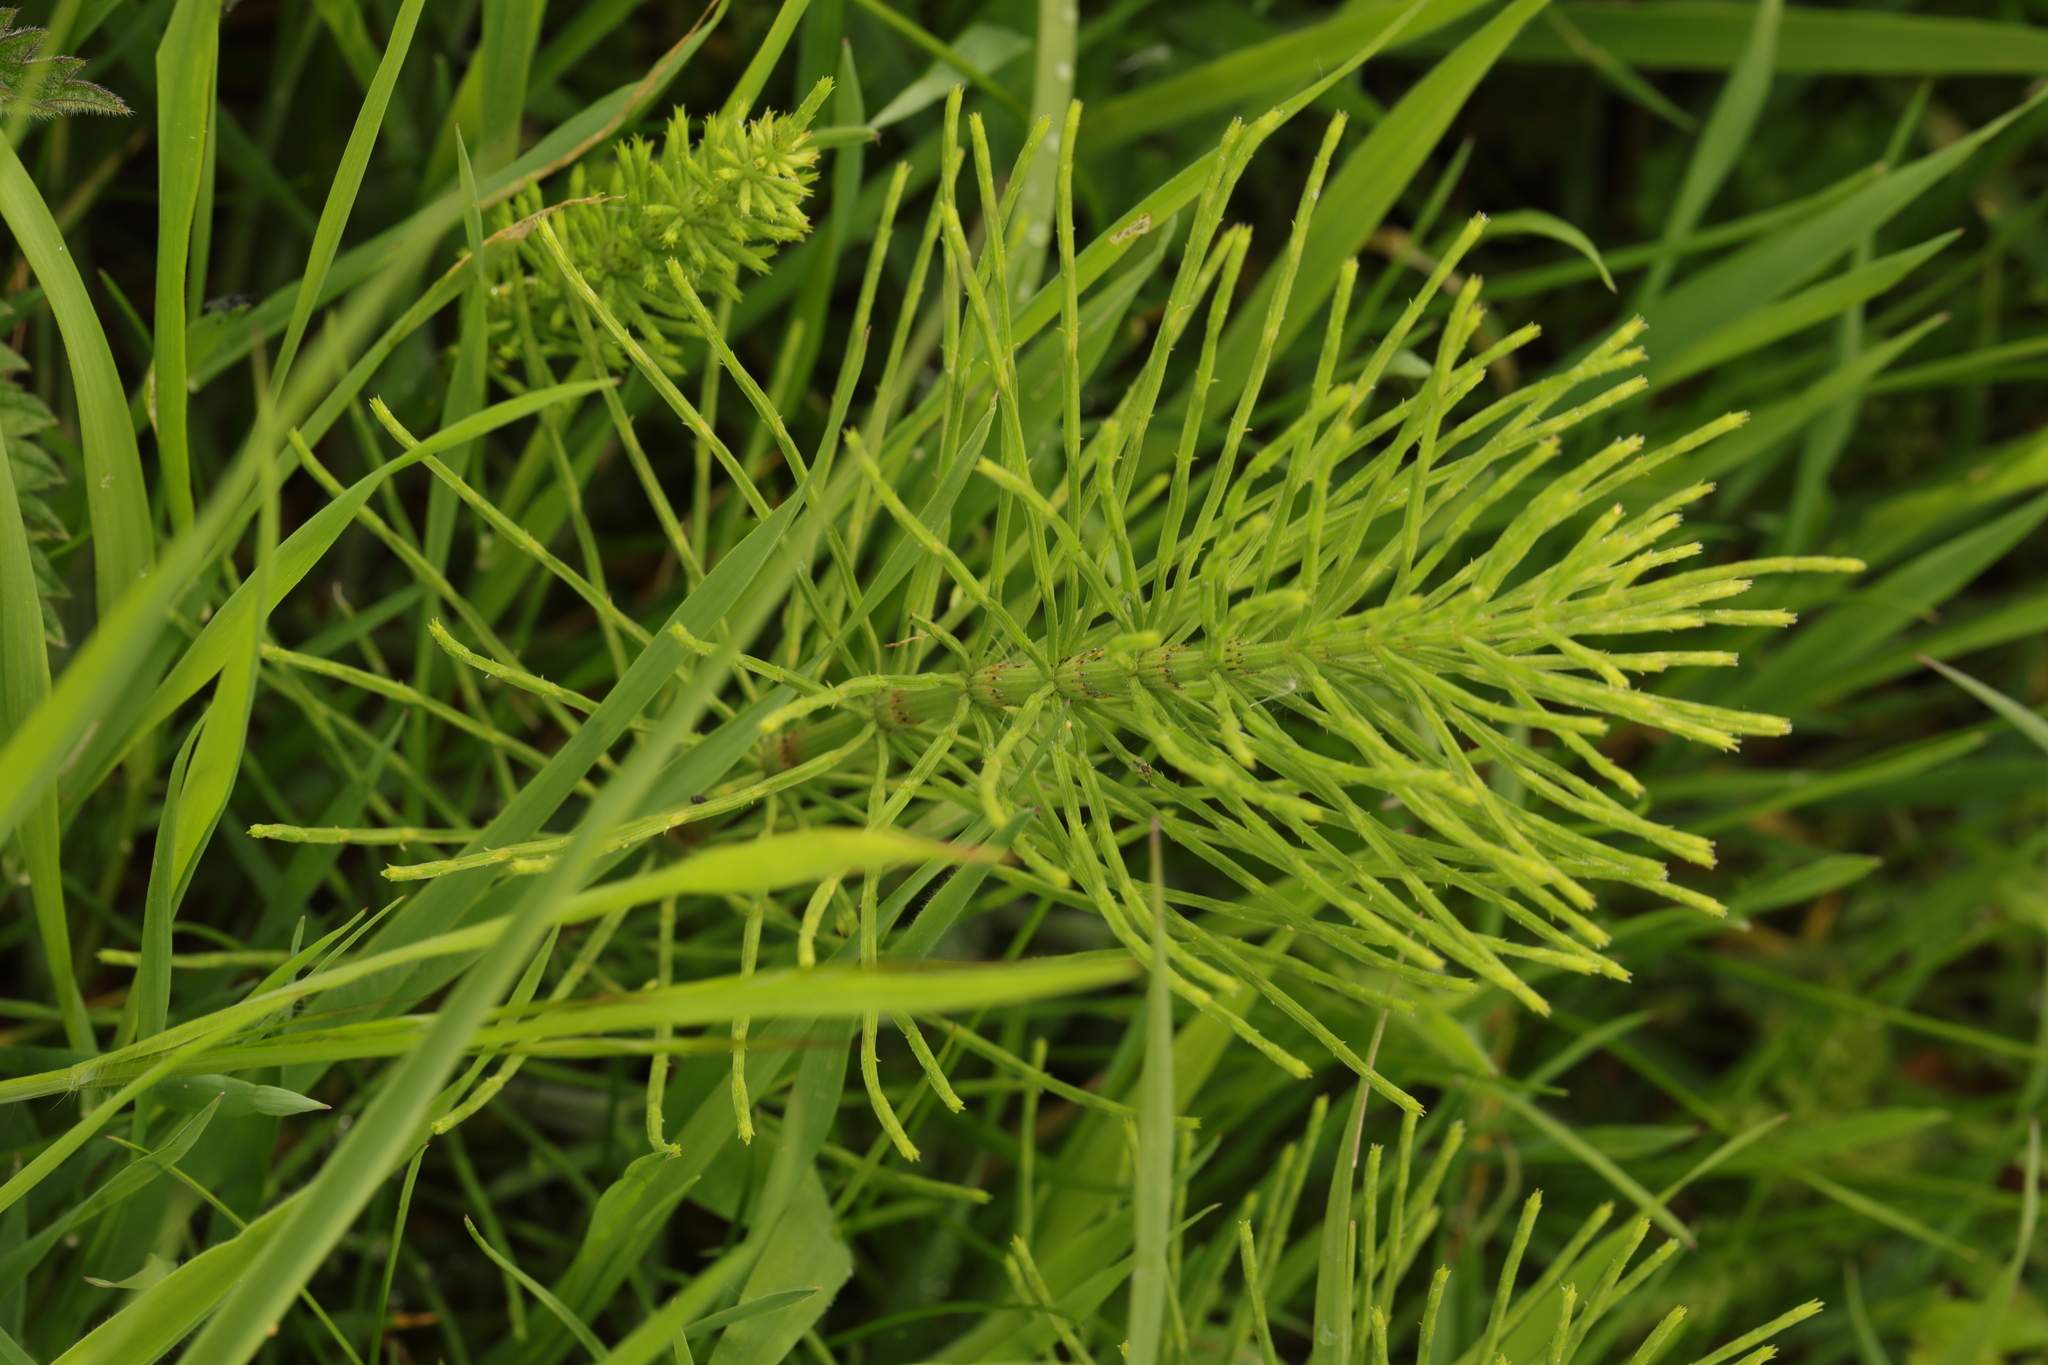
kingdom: Plantae
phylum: Tracheophyta
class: Polypodiopsida
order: Equisetales
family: Equisetaceae
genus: Equisetum
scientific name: Equisetum arvense
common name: Field horsetail
